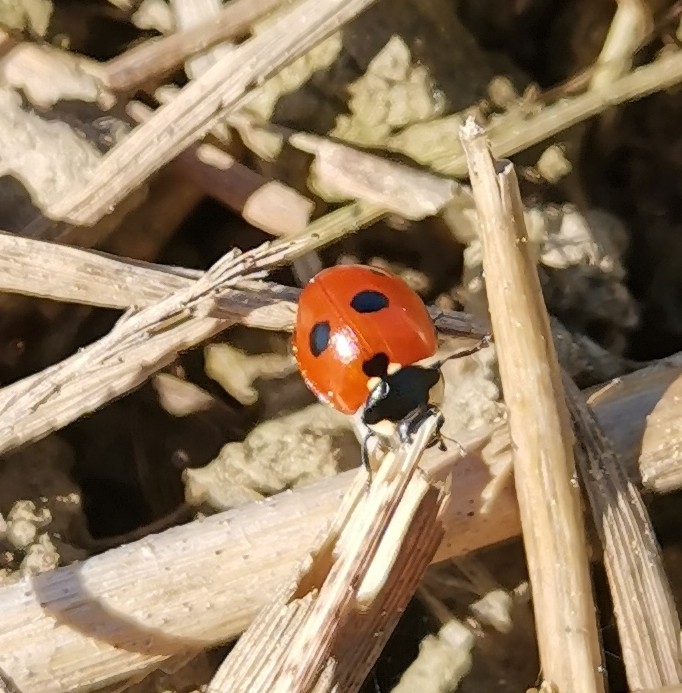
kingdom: Animalia
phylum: Arthropoda
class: Insecta
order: Coleoptera
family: Coccinellidae
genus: Coccinella
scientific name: Coccinella quinquepunctata
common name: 5-spot ladybird
